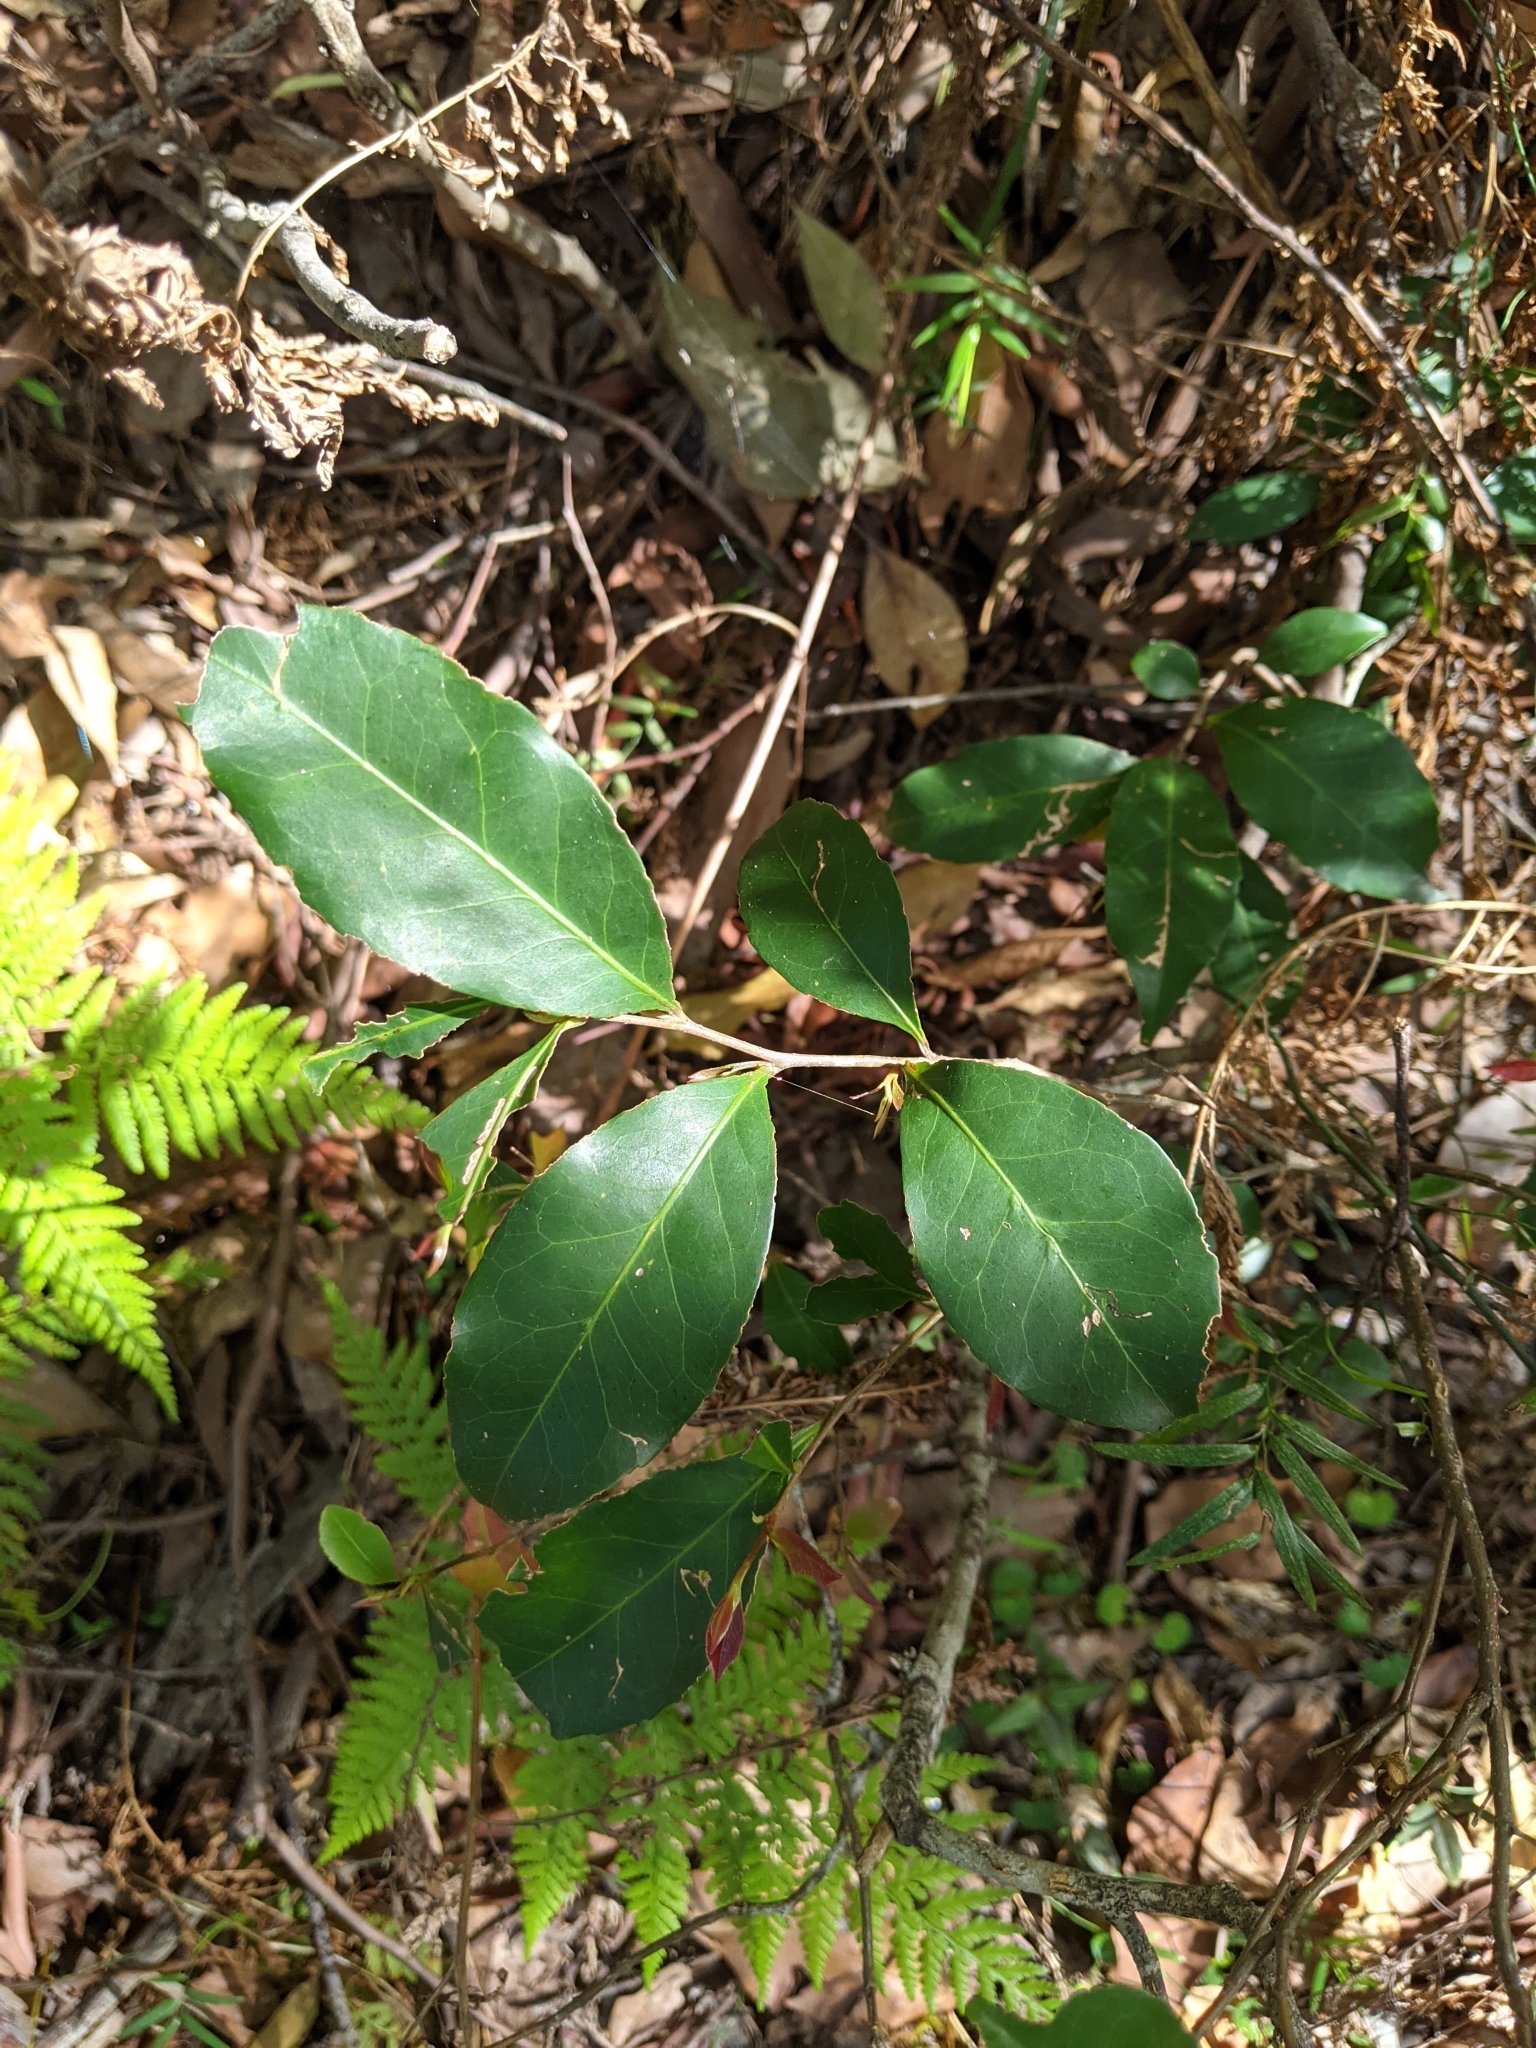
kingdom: Plantae
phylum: Tracheophyta
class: Magnoliopsida
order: Oxalidales
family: Elaeocarpaceae
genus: Elaeocarpus
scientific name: Elaeocarpus obovatus
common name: Freckled oliveberry
